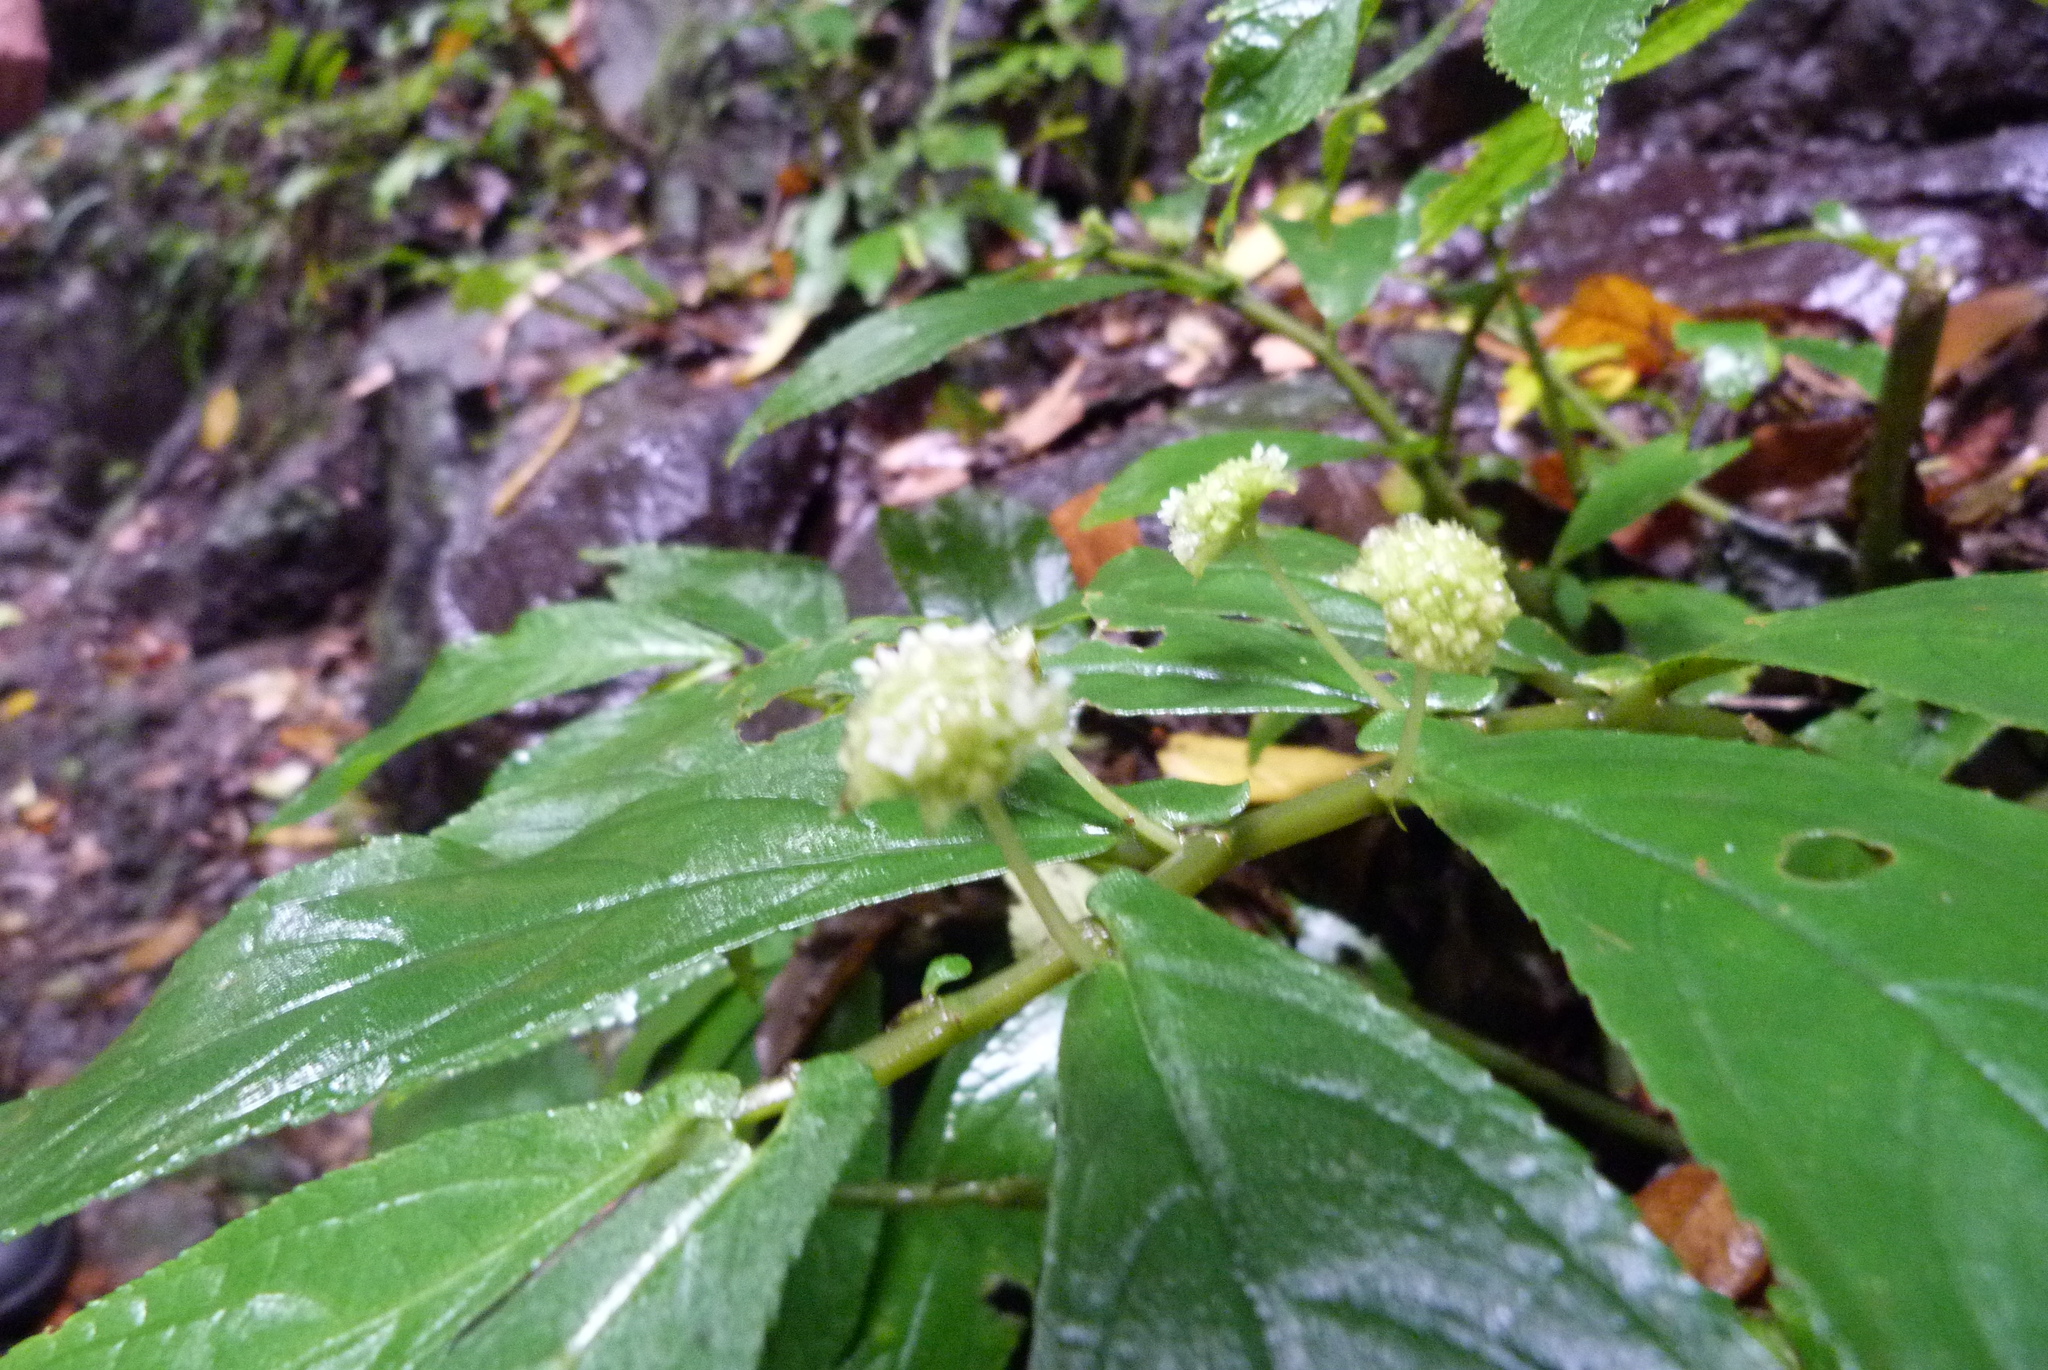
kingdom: Plantae
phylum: Tracheophyta
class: Magnoliopsida
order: Rosales
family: Urticaceae
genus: Elatostema
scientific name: Elatostema reticulatum
